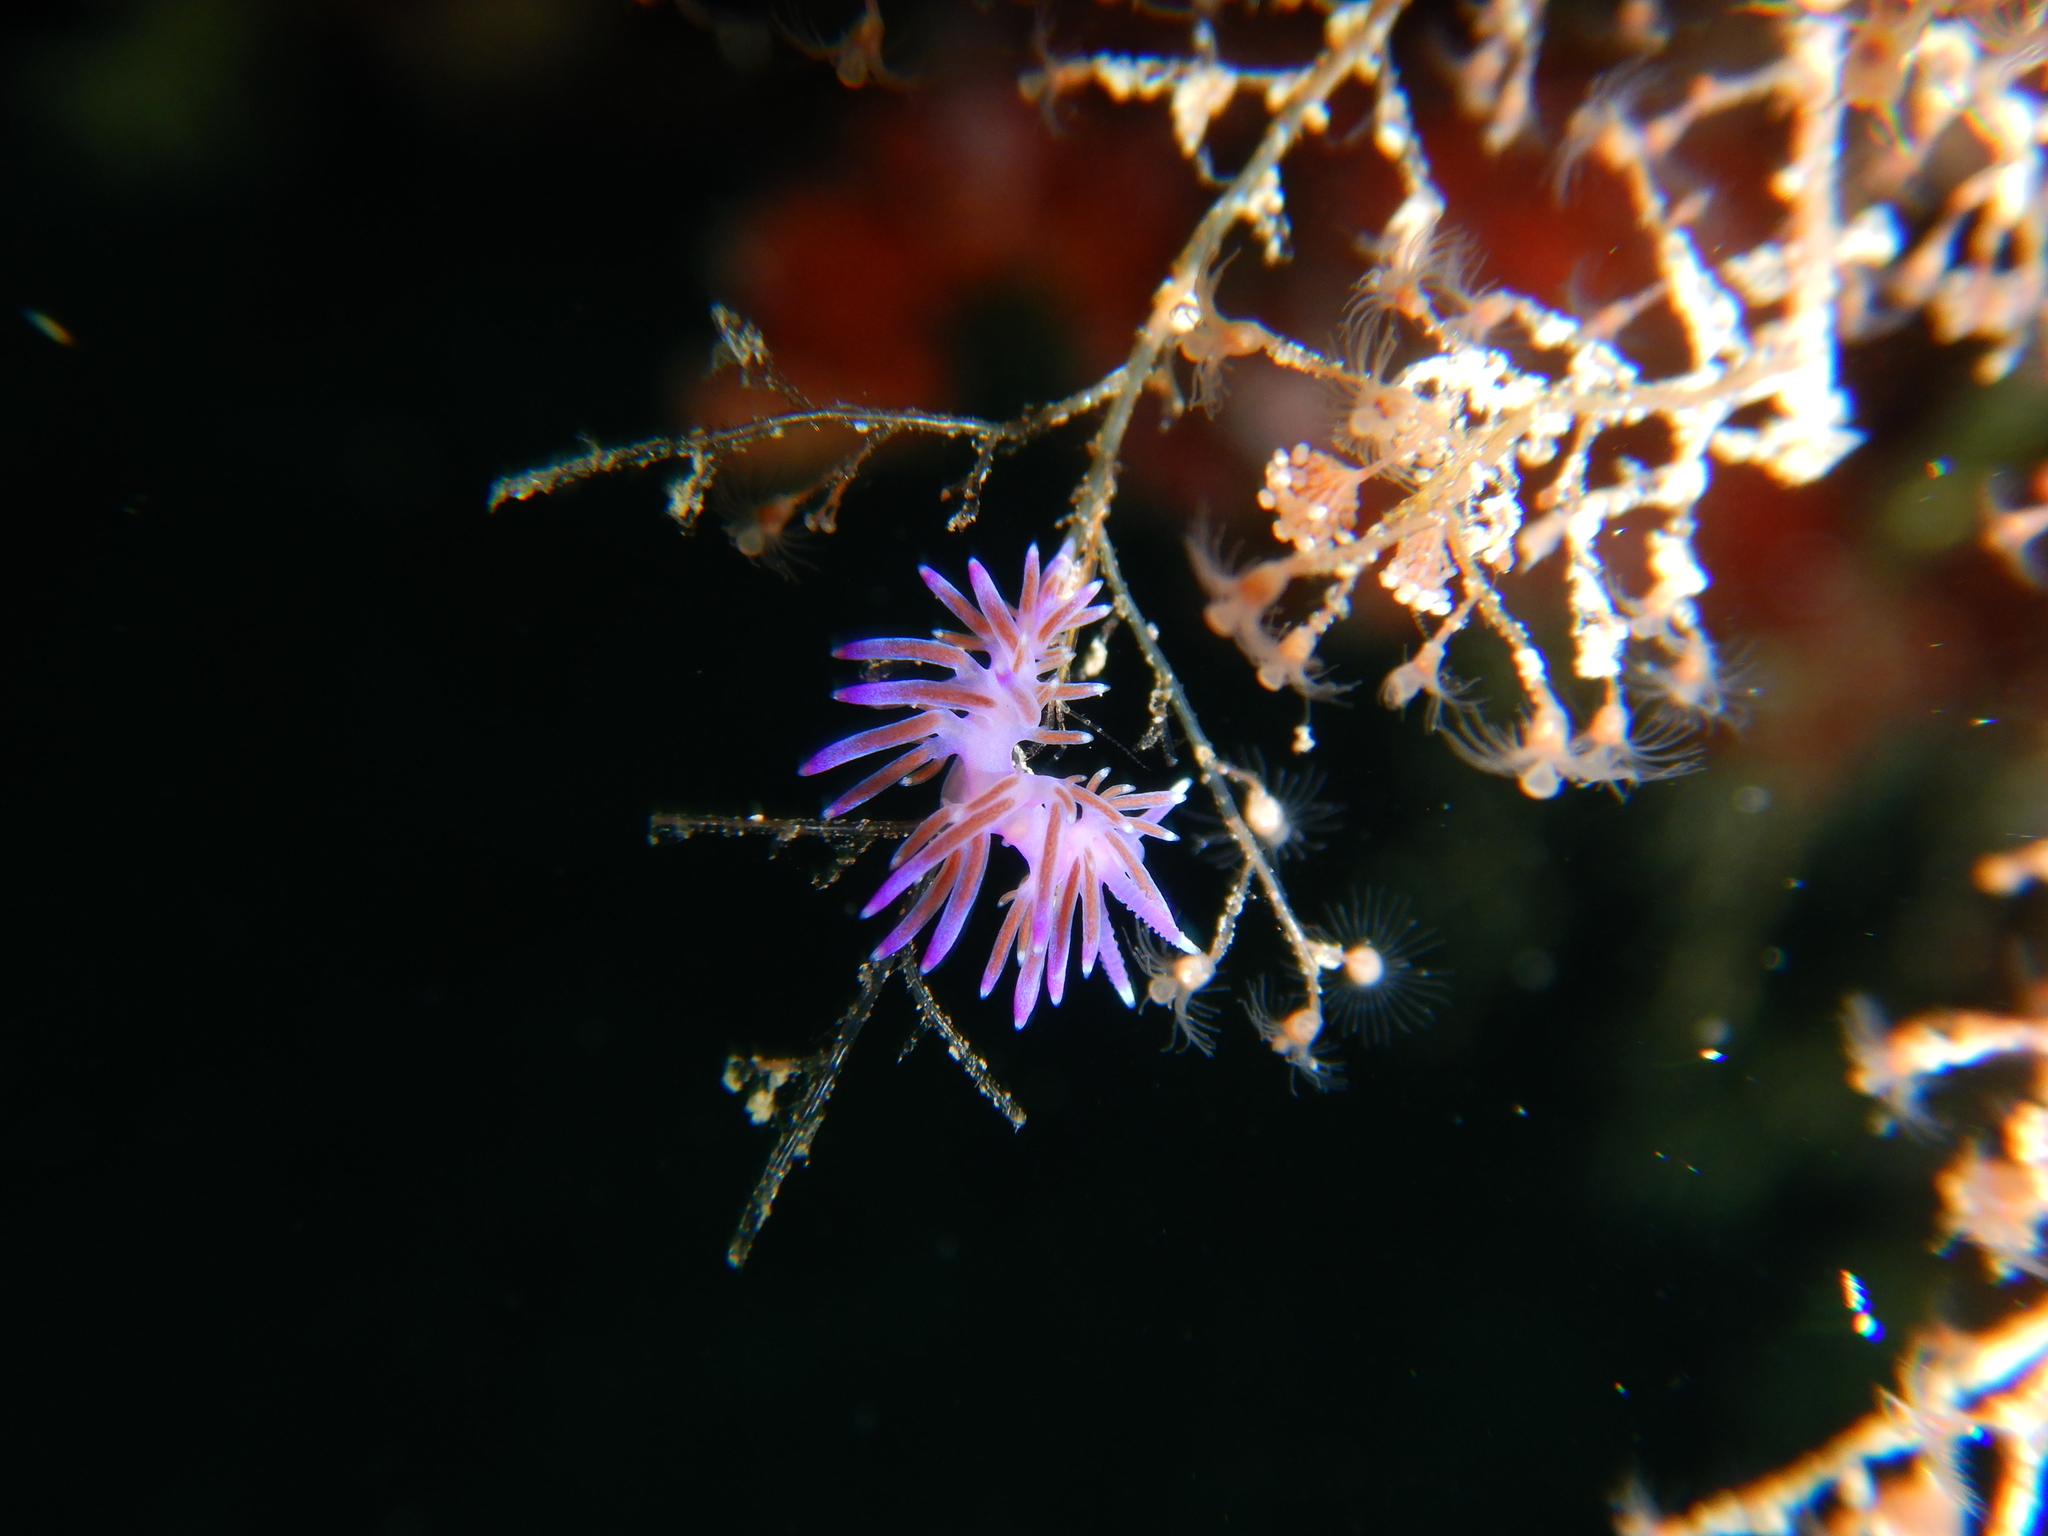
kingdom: Animalia
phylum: Mollusca
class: Gastropoda
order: Nudibranchia
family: Flabellinidae
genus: Flabellina
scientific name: Flabellina affinis
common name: Mediterranean violet aeolid
